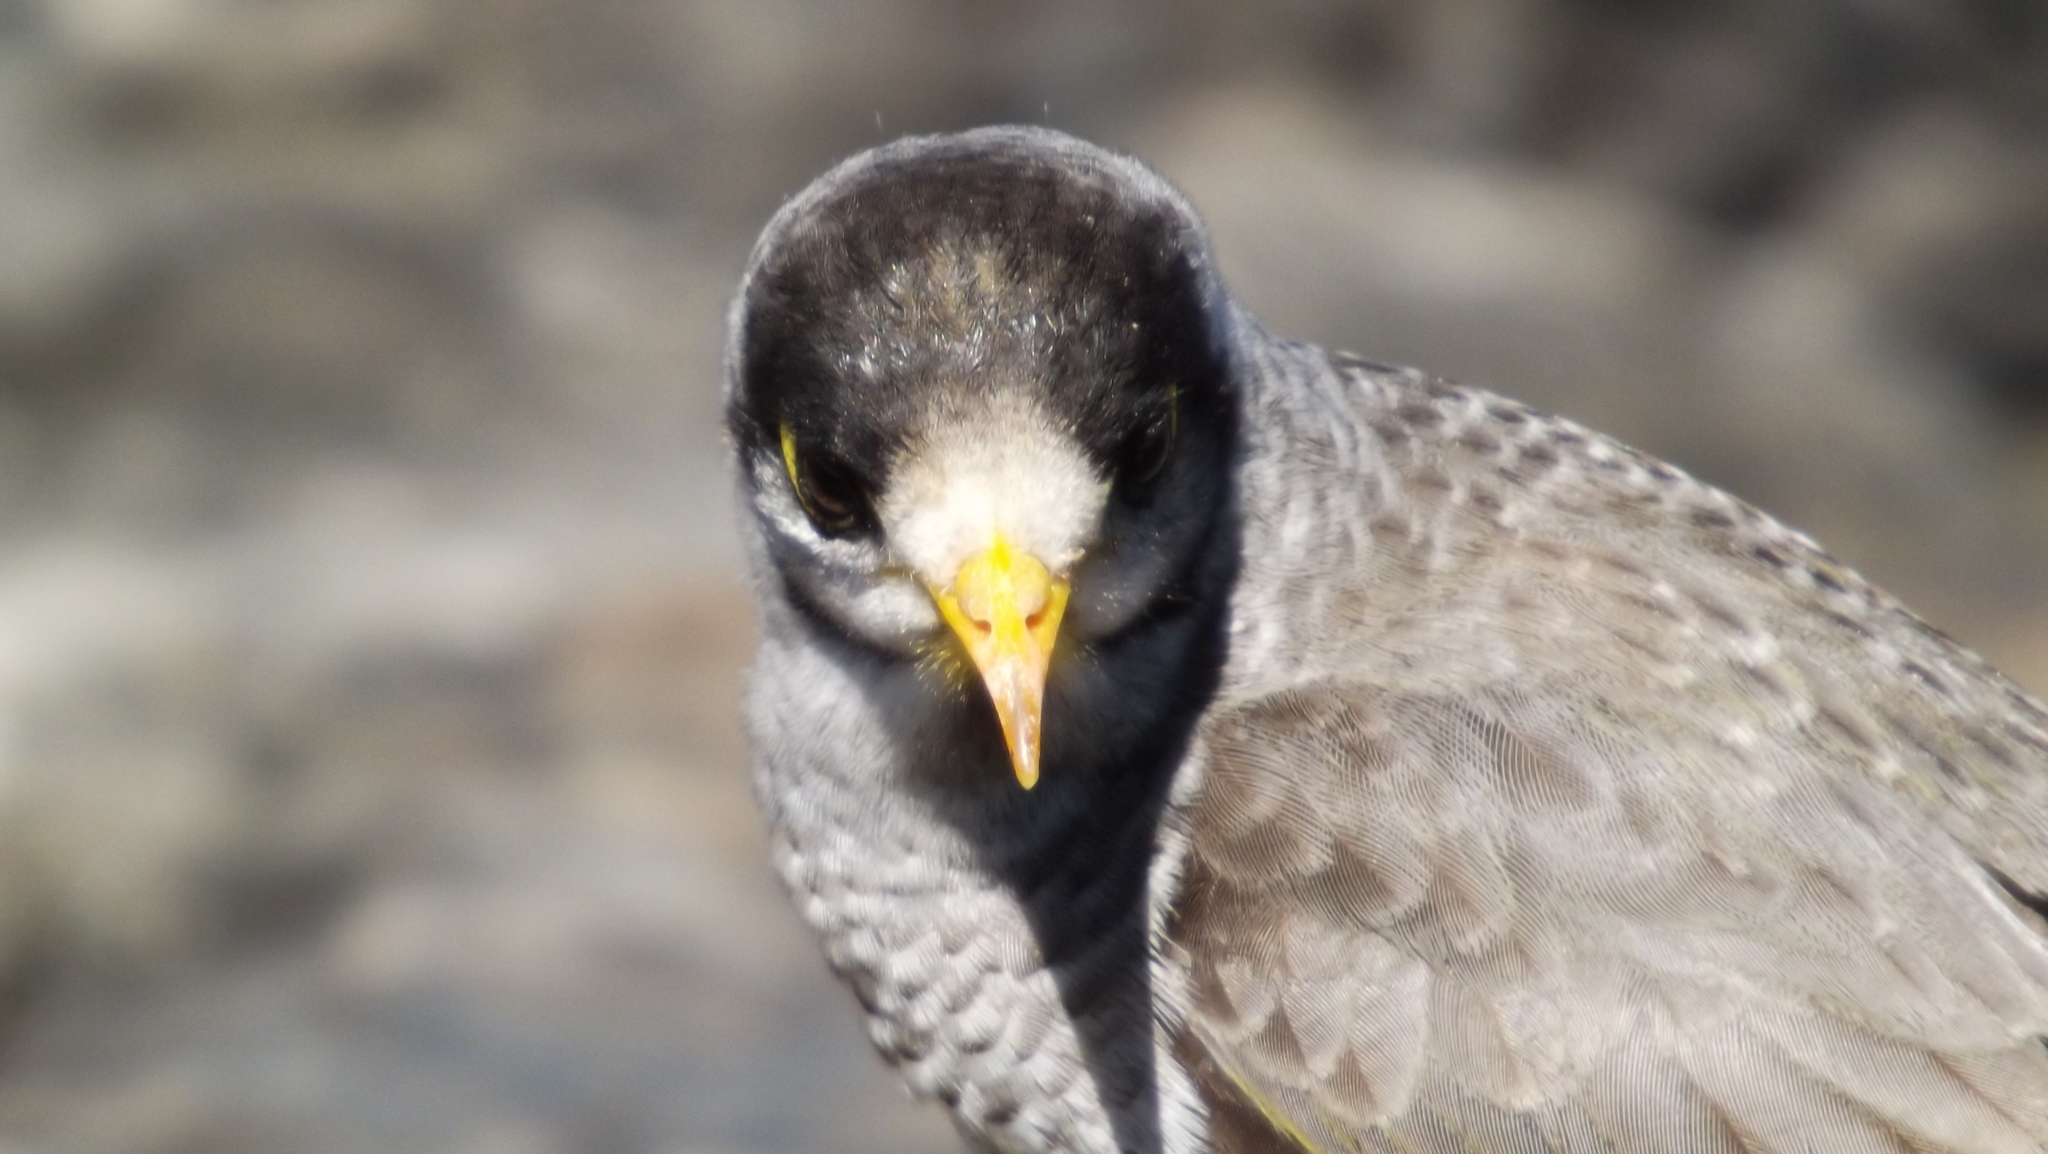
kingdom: Animalia
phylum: Chordata
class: Aves
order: Passeriformes
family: Meliphagidae
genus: Manorina
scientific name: Manorina melanocephala
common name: Noisy miner
